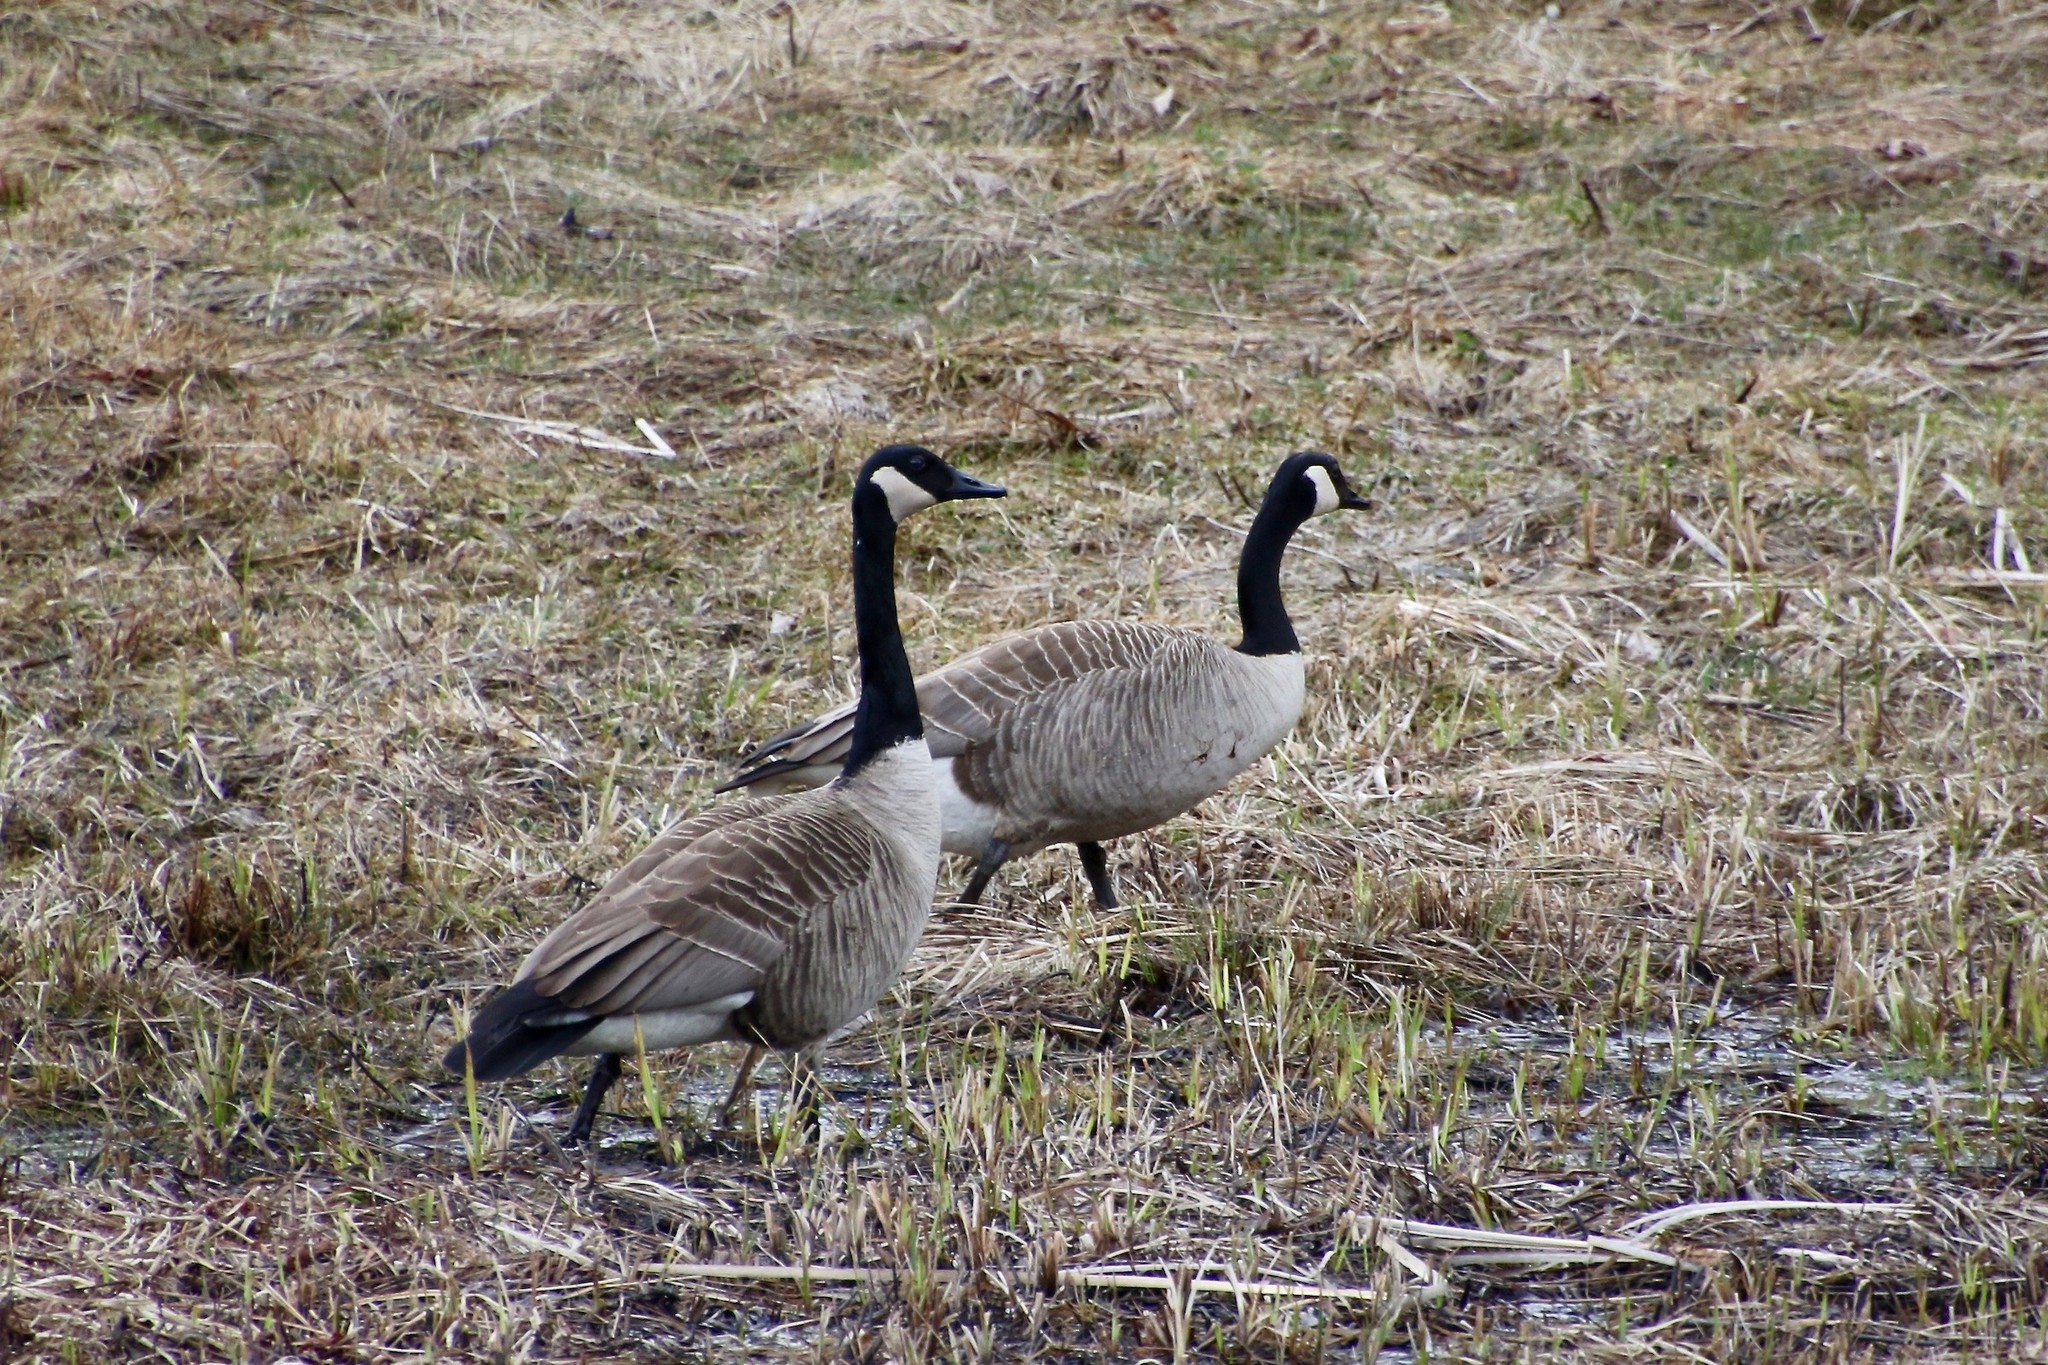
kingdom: Animalia
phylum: Chordata
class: Aves
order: Anseriformes
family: Anatidae
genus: Branta
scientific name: Branta canadensis
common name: Canada goose
